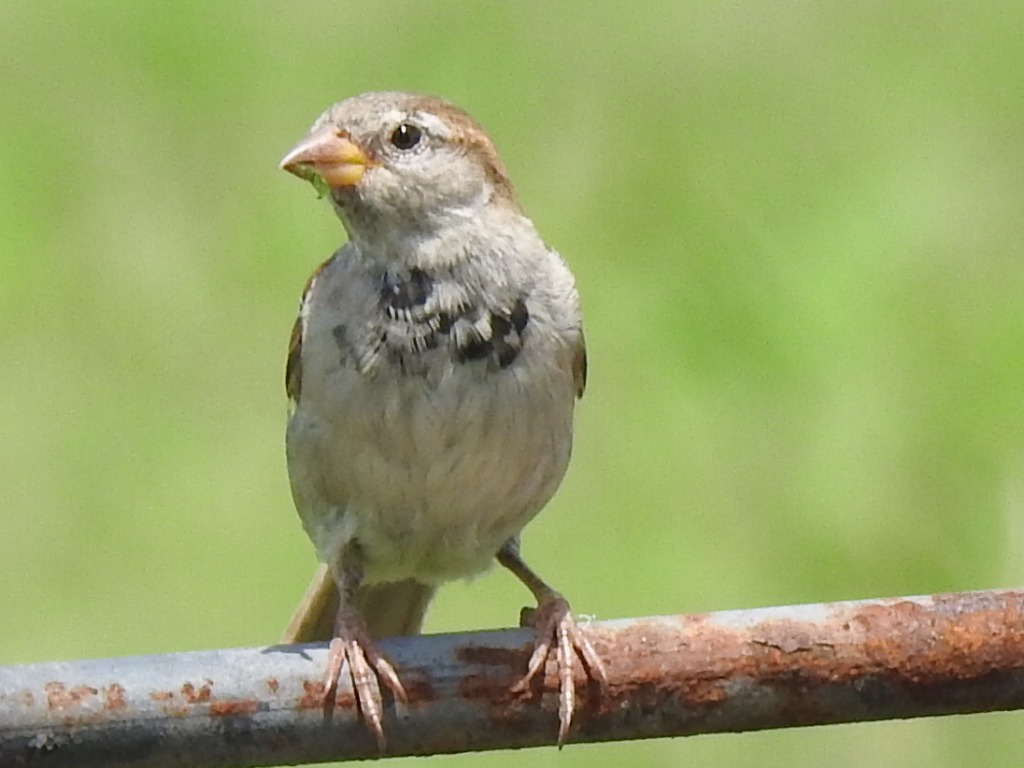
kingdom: Animalia
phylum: Chordata
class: Aves
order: Passeriformes
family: Passeridae
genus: Passer
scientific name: Passer domesticus
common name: House sparrow
